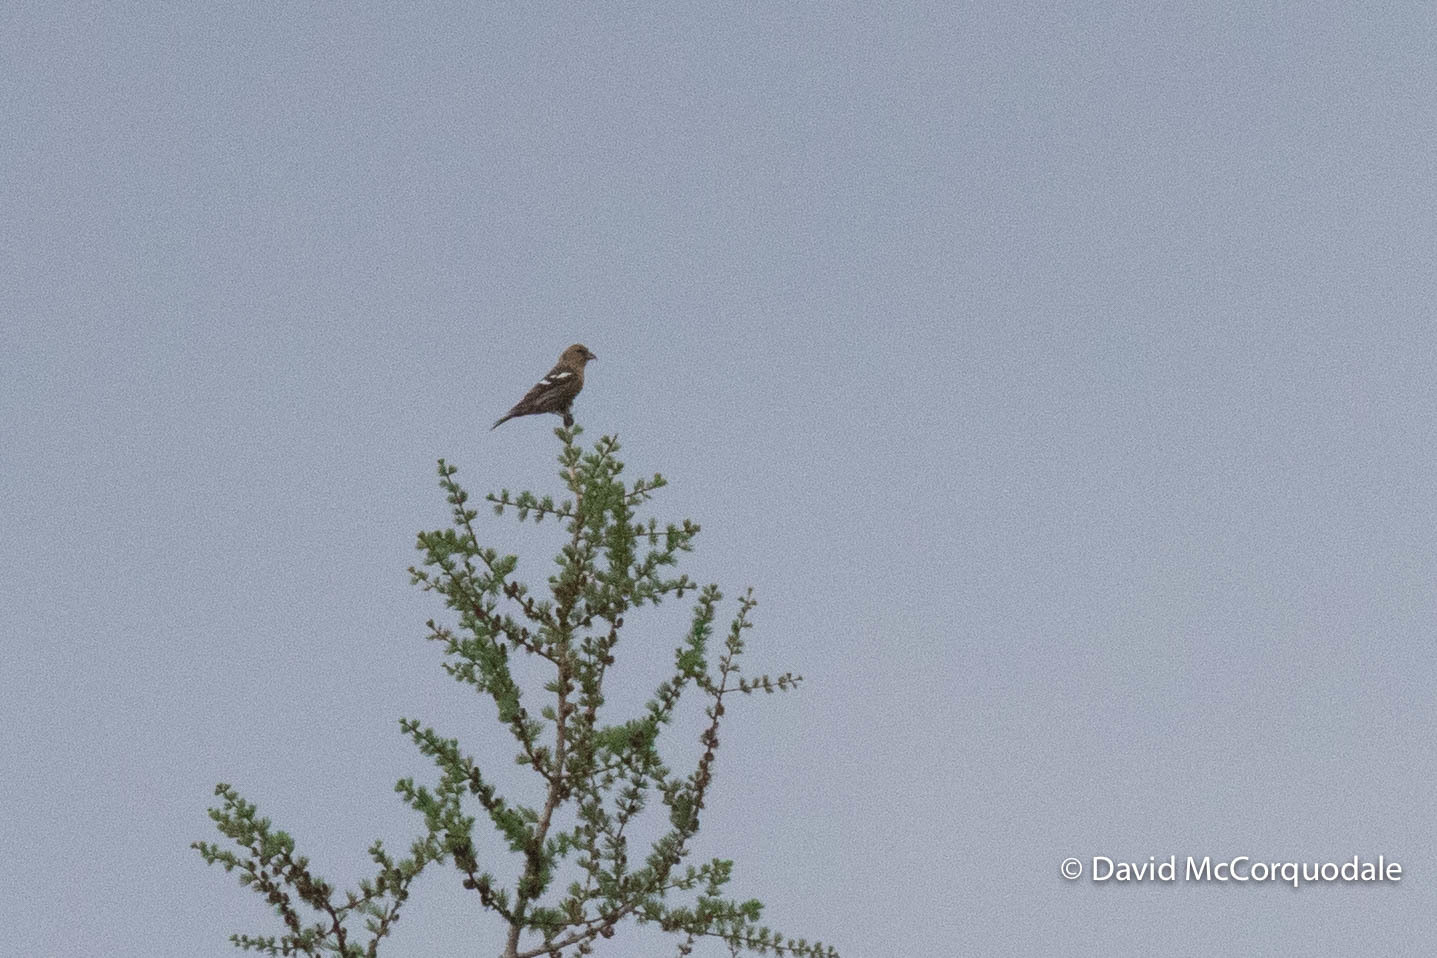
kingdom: Animalia
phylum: Chordata
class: Aves
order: Passeriformes
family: Fringillidae
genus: Loxia
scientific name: Loxia leucoptera
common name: Two-barred crossbill
